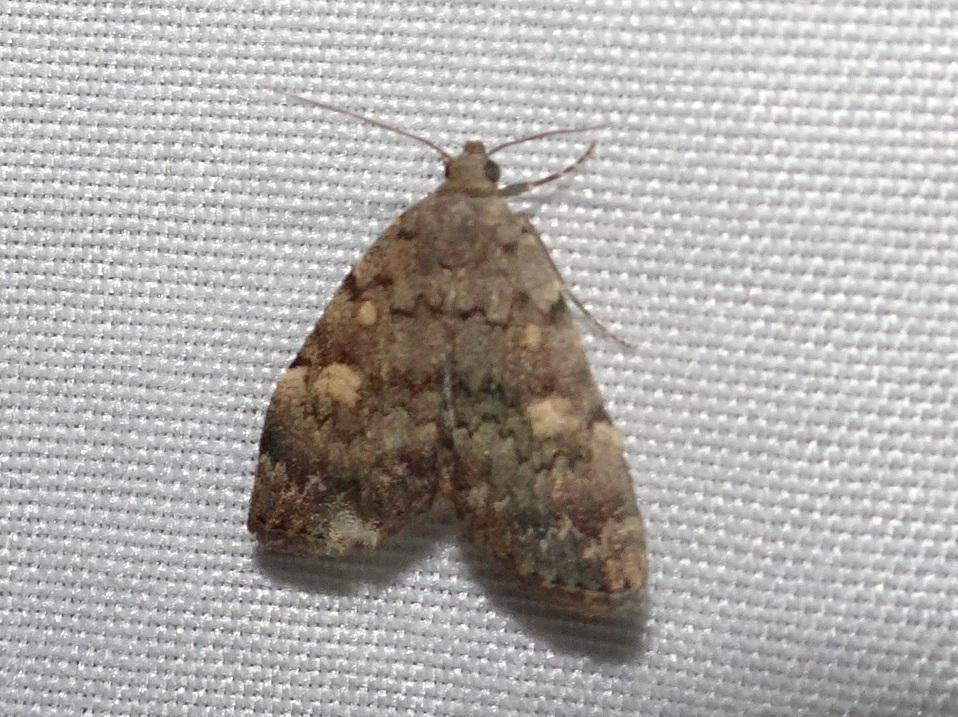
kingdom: Animalia
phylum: Arthropoda
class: Insecta
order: Lepidoptera
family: Erebidae
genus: Idia
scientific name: Idia aemula
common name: Common idia moth
